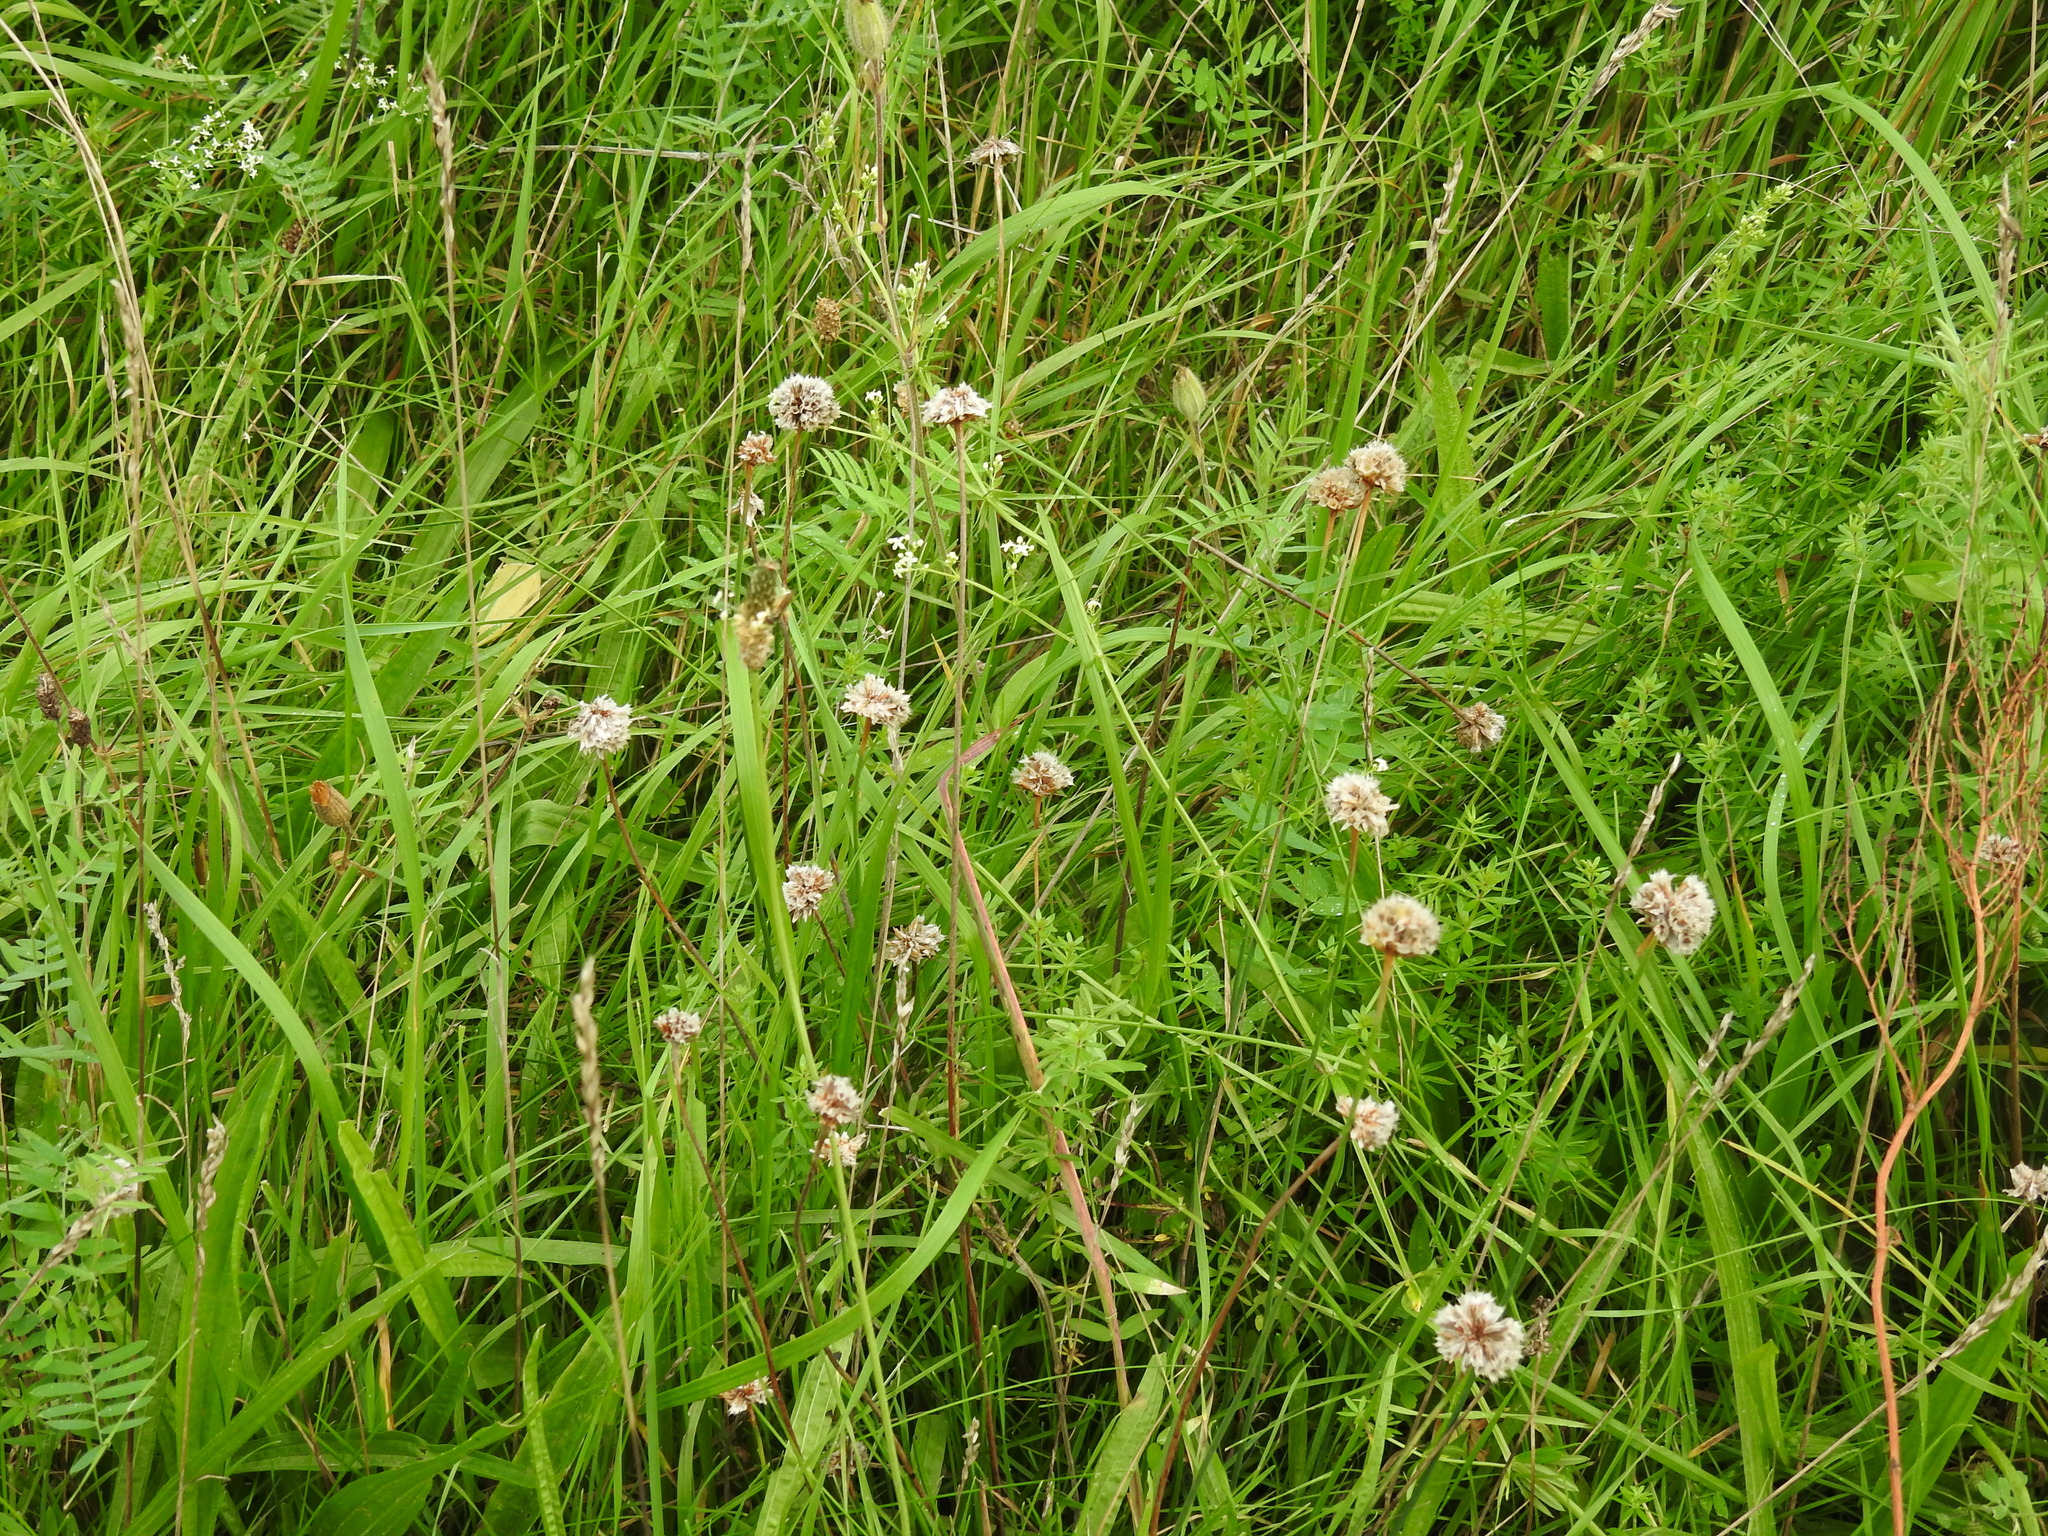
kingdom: Plantae
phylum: Tracheophyta
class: Magnoliopsida
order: Caryophyllales
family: Plumbaginaceae
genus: Armeria
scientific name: Armeria maritima
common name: Thrift
